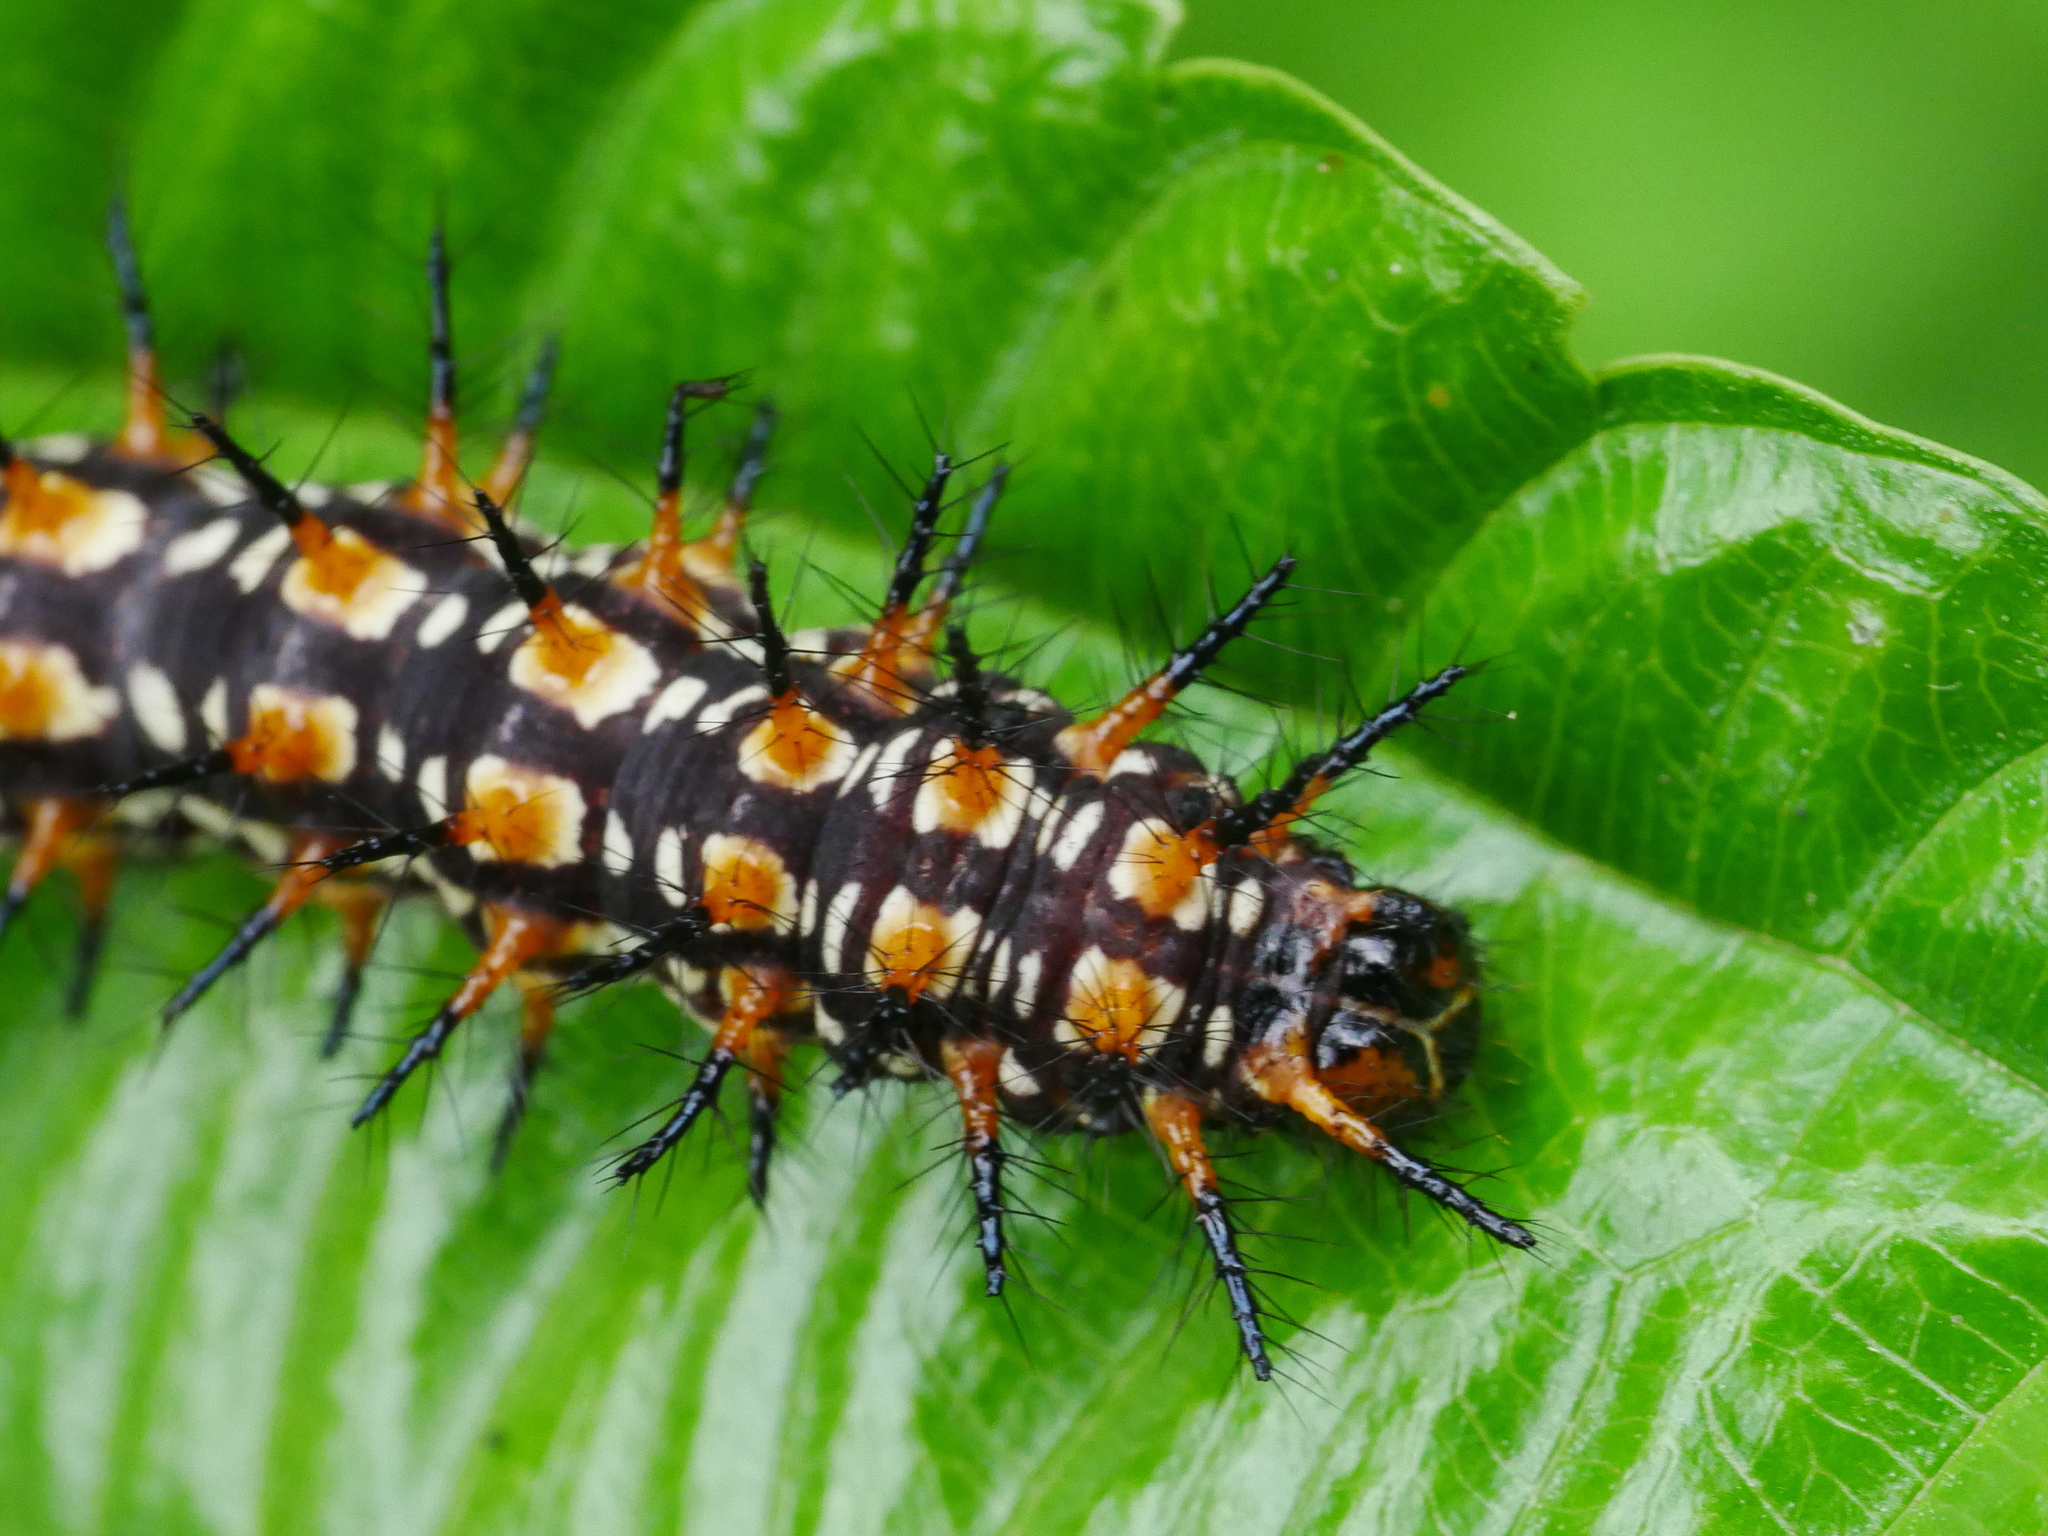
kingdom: Animalia
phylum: Arthropoda
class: Insecta
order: Lepidoptera
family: Nymphalidae
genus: Acraea
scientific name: Acraea Telchinia issoria
